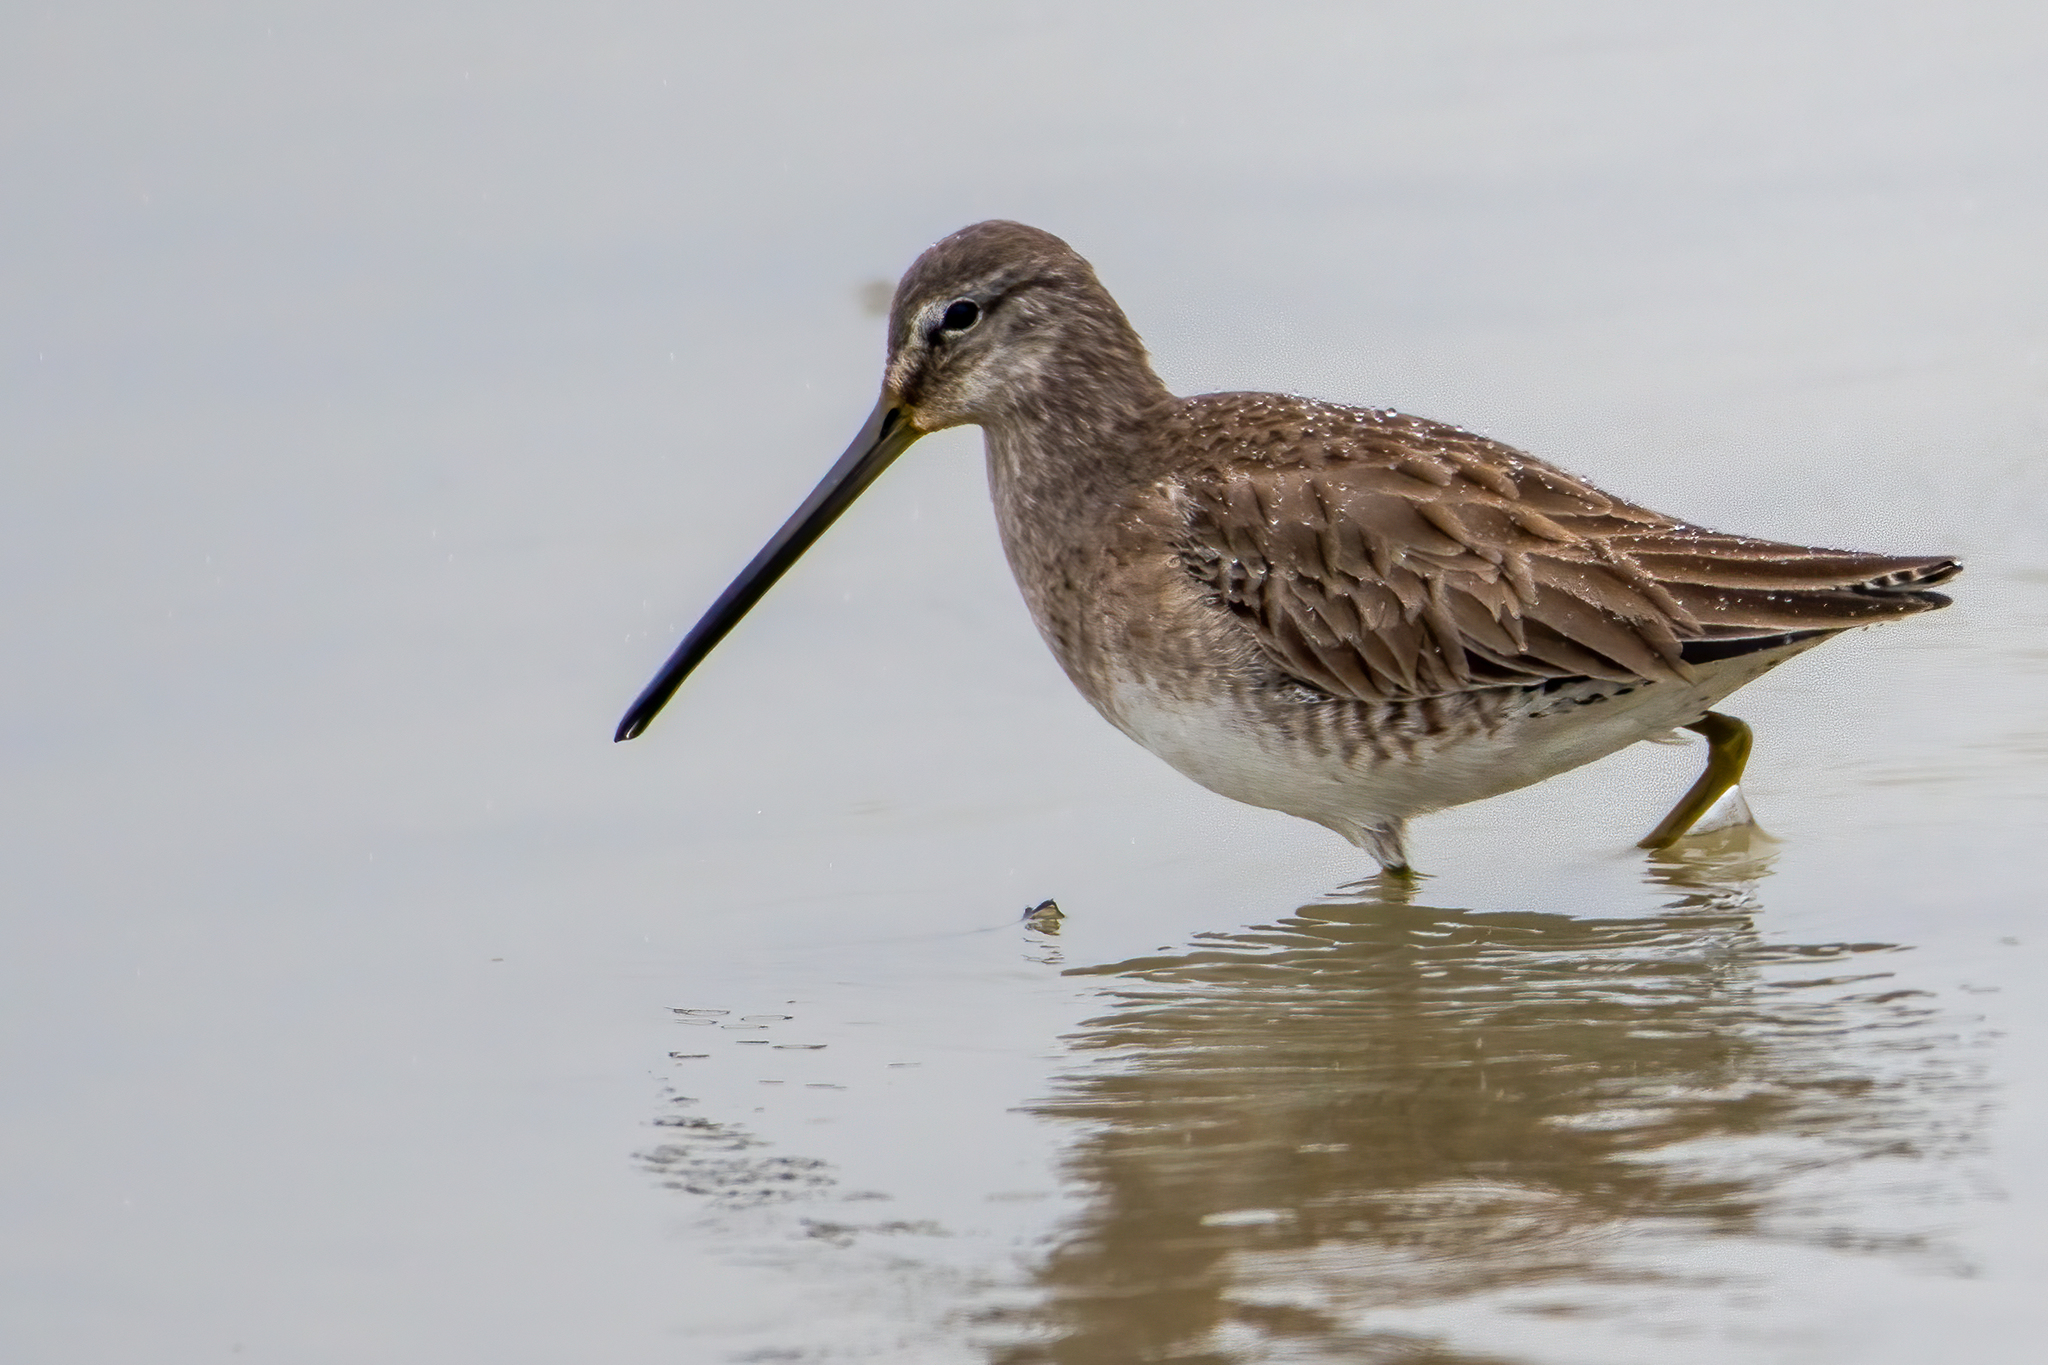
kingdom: Animalia
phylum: Chordata
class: Aves
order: Charadriiformes
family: Scolopacidae
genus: Limnodromus
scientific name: Limnodromus scolopaceus
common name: Long-billed dowitcher
